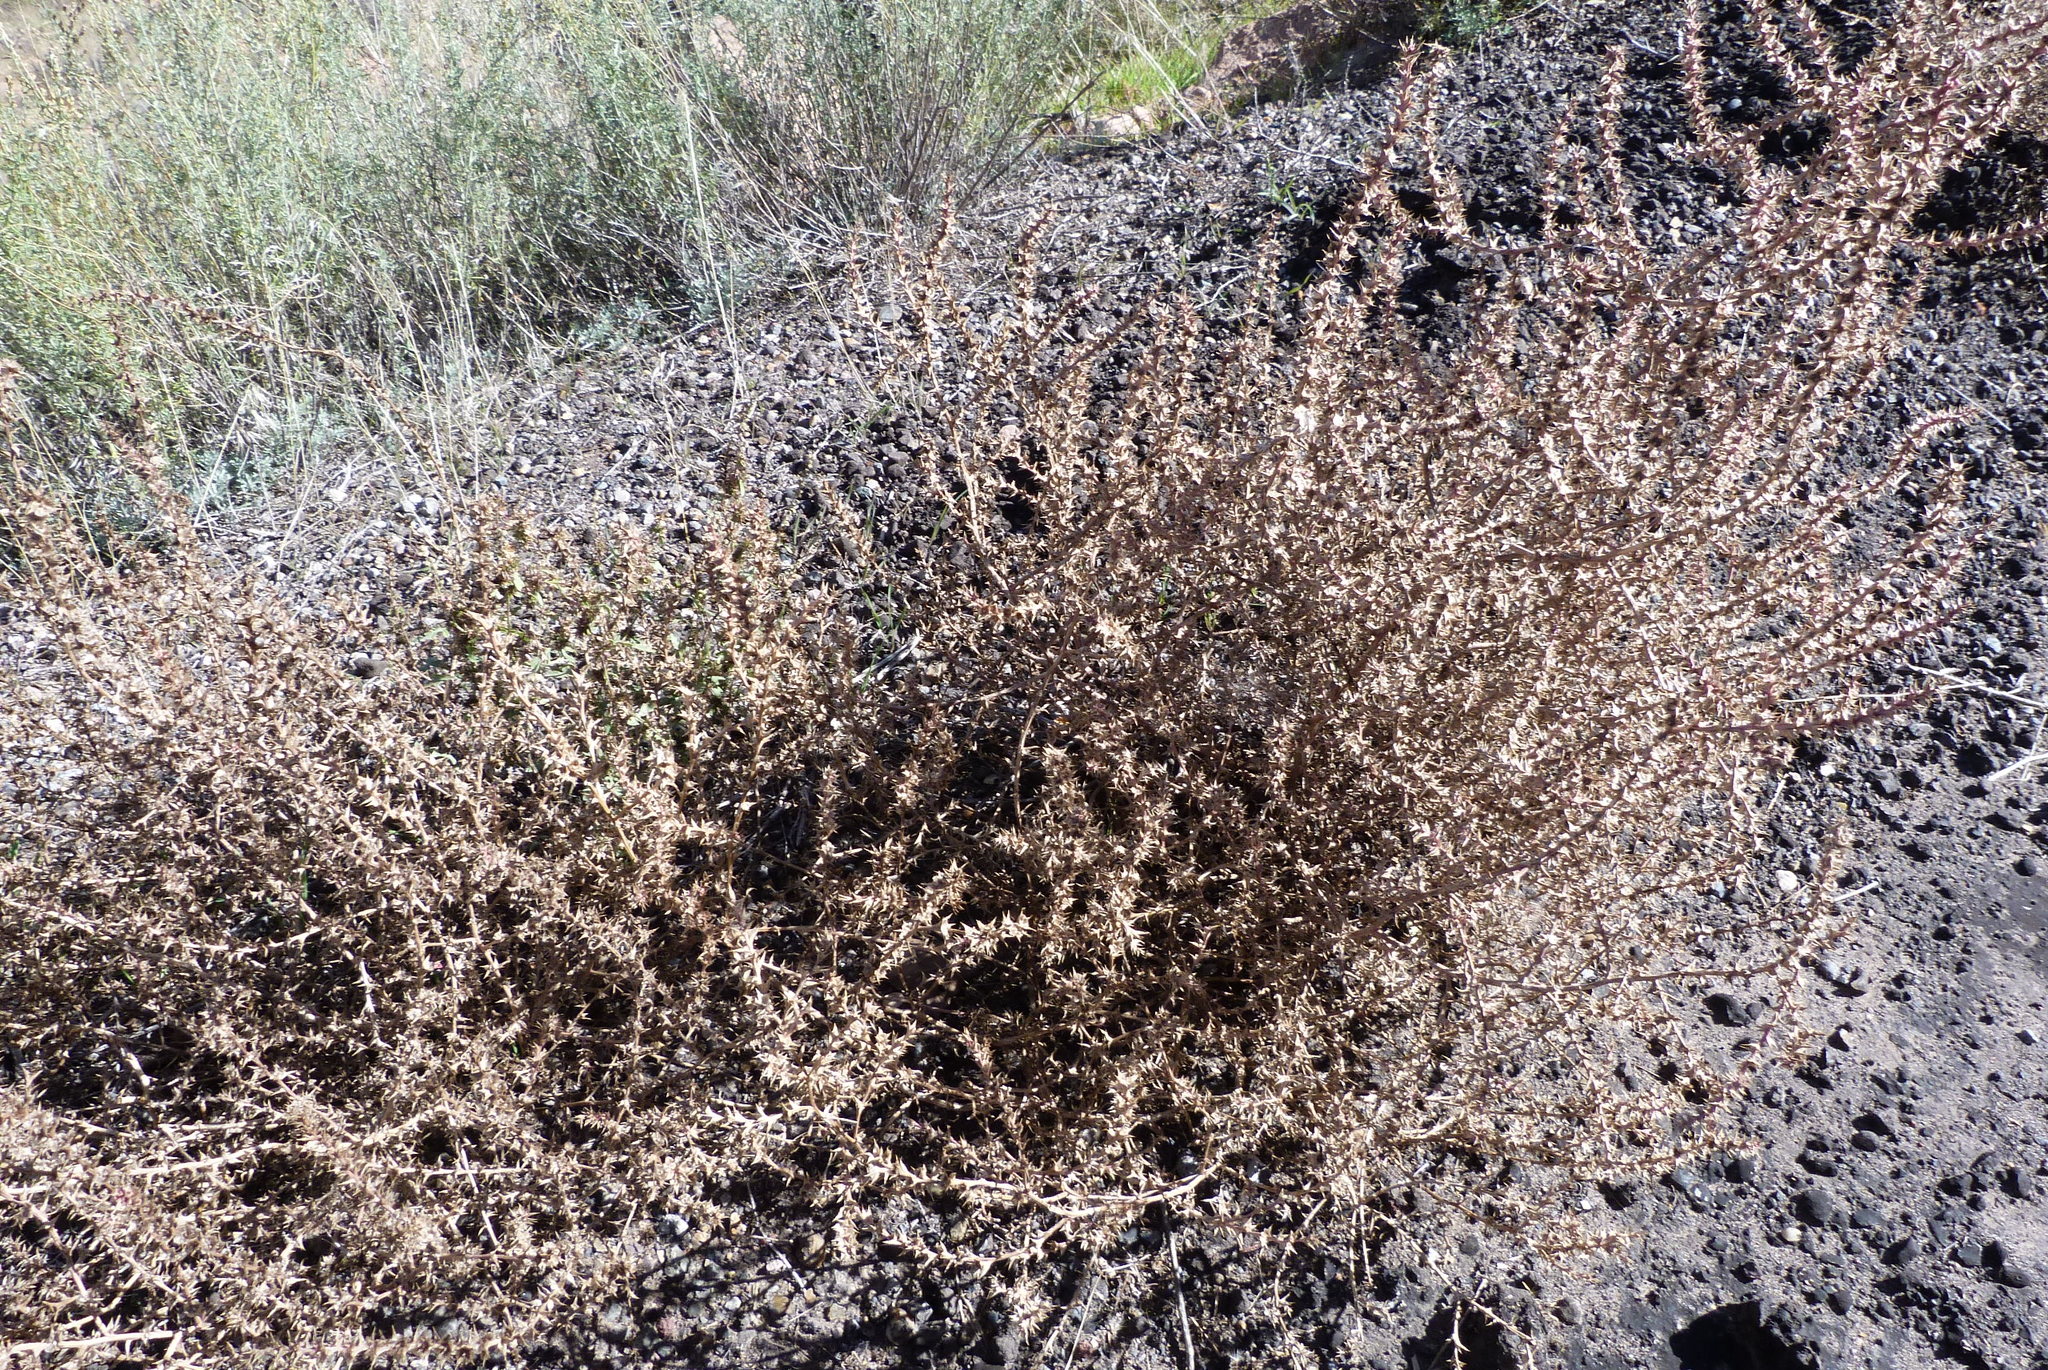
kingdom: Plantae
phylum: Tracheophyta
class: Magnoliopsida
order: Caryophyllales
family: Amaranthaceae
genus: Salsola
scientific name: Salsola tragus
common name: Prickly russian thistle
